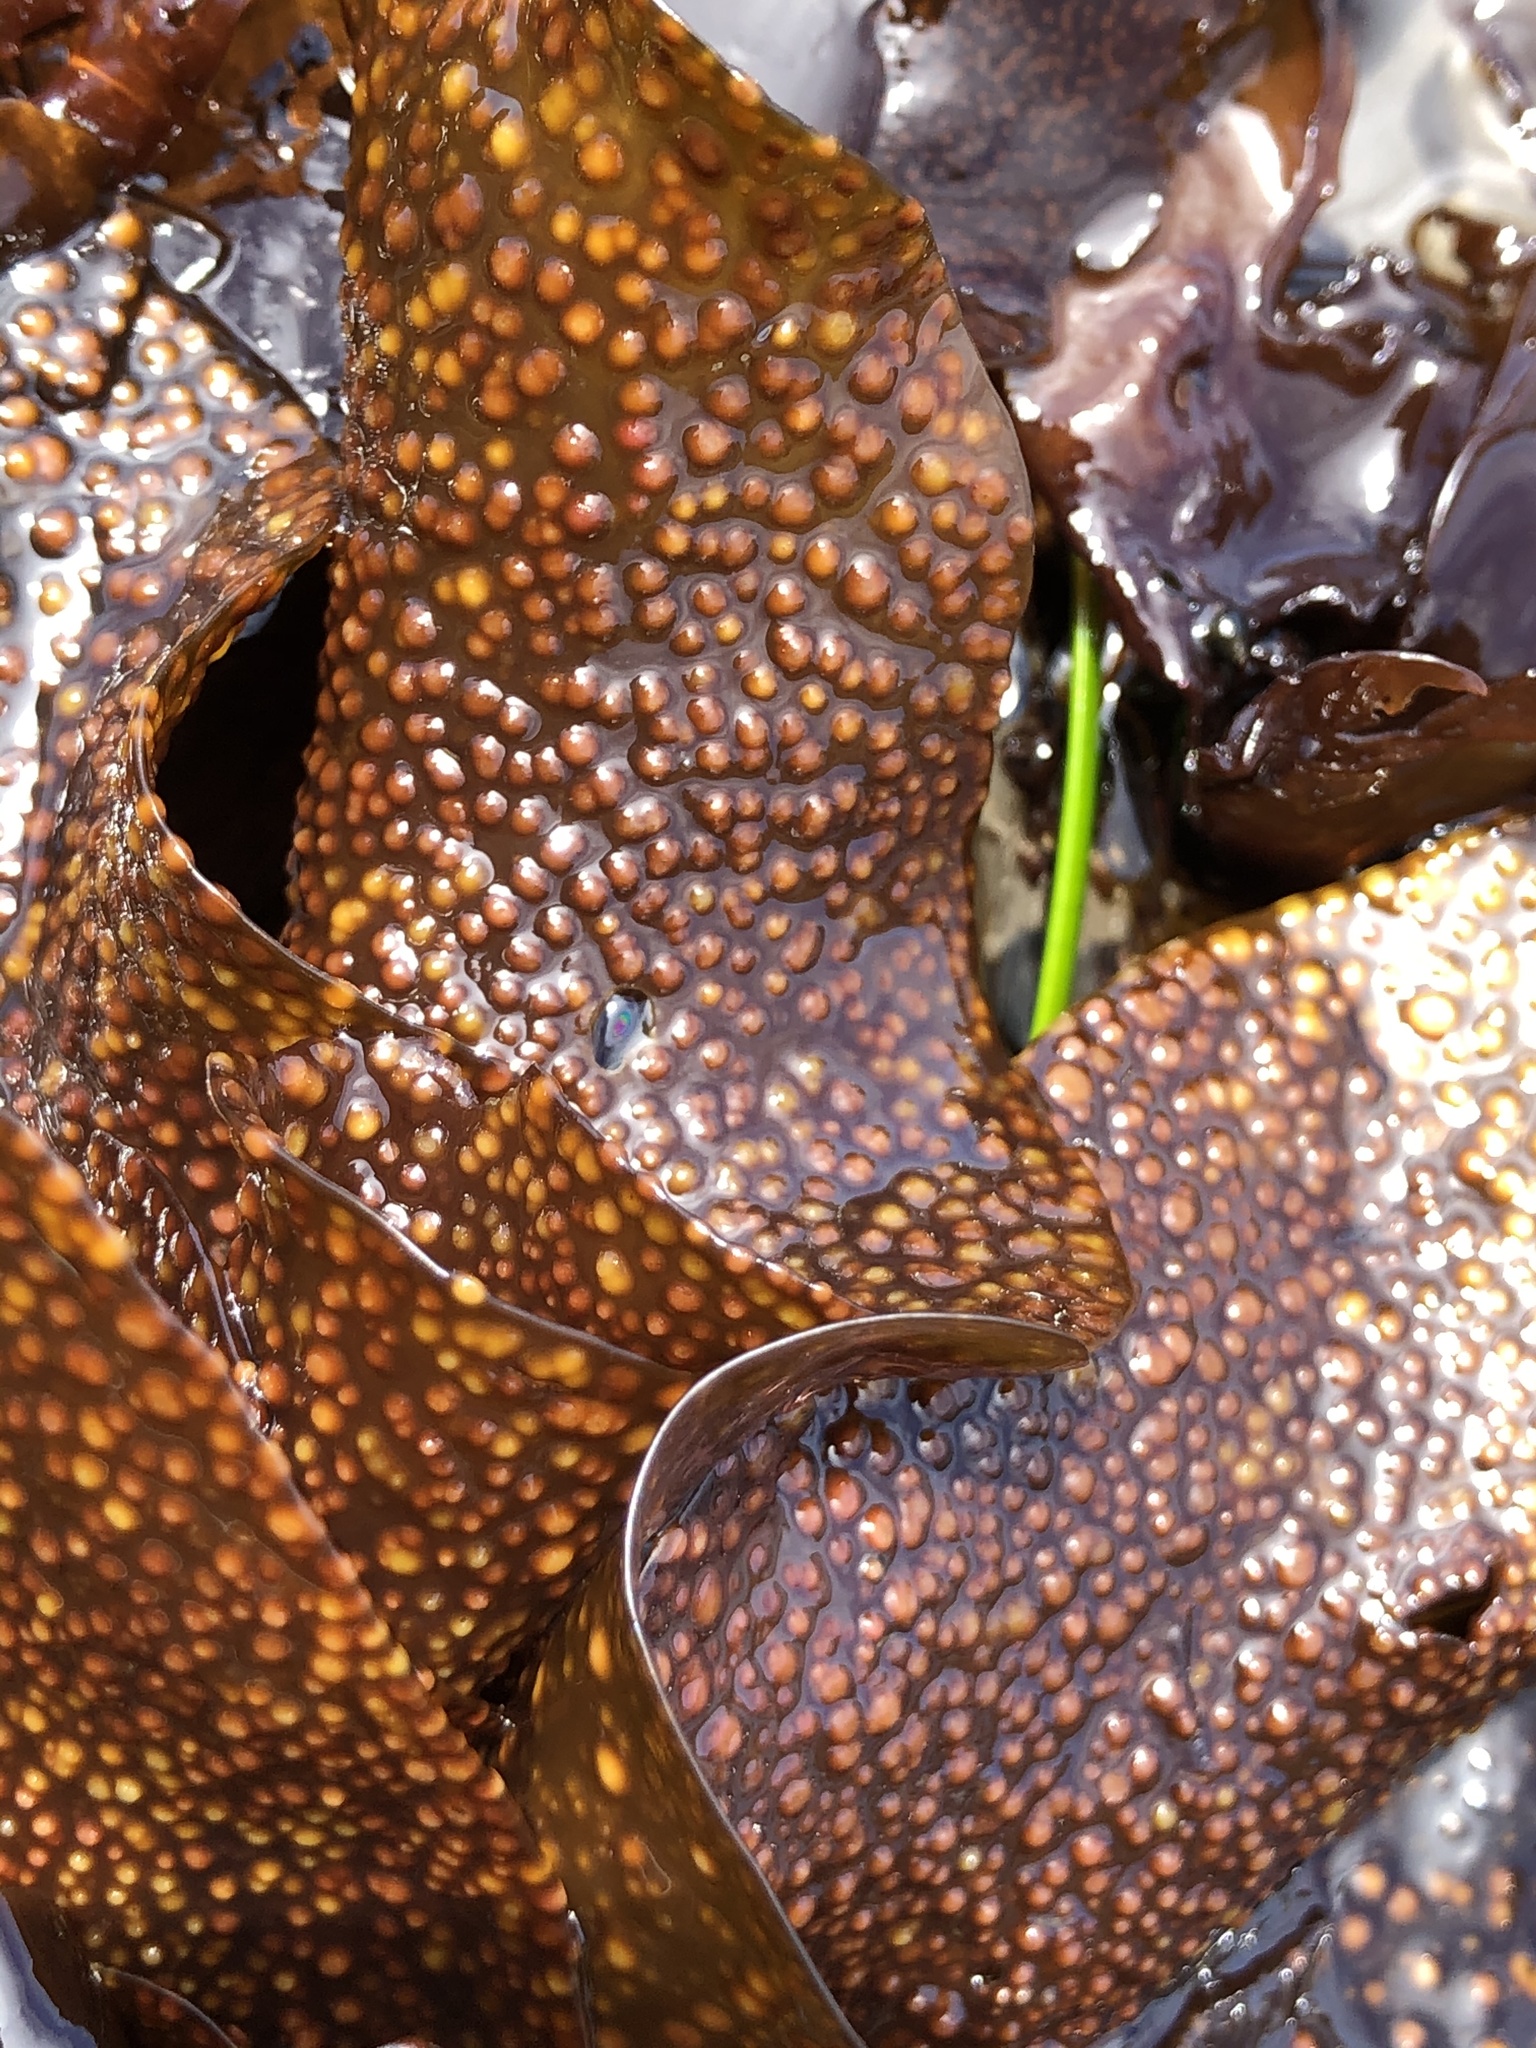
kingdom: Plantae
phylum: Rhodophyta
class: Florideophyceae
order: Gigartinales
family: Gigartinaceae
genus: Mazzaella
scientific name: Mazzaella oregona
